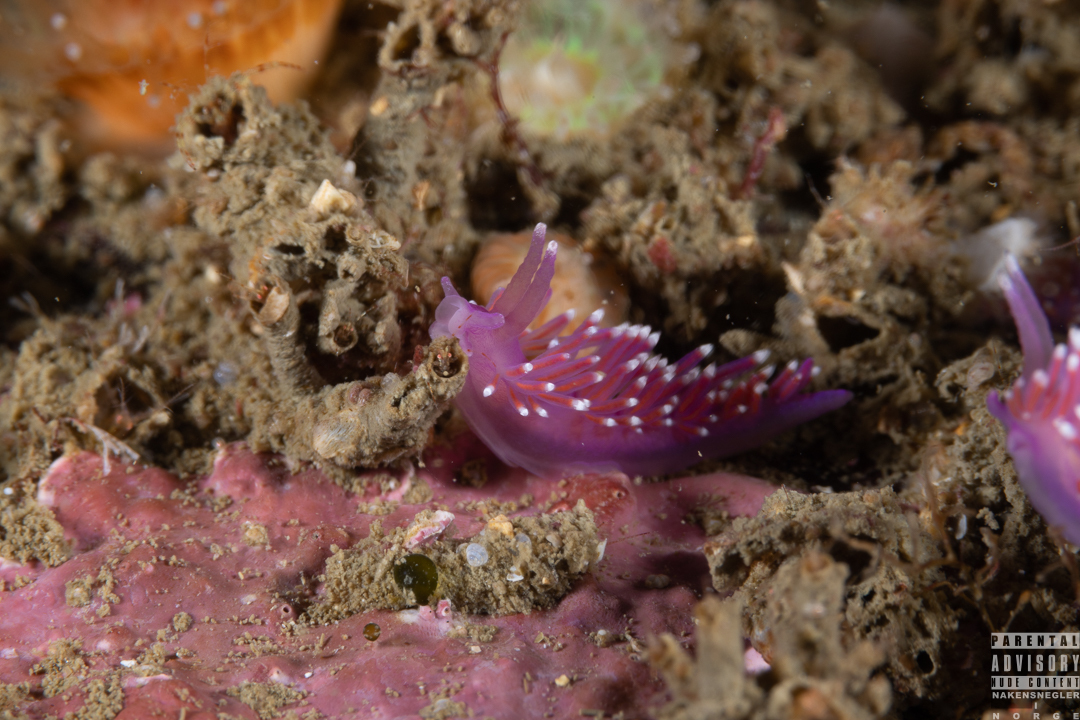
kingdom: Animalia
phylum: Mollusca
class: Gastropoda
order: Nudibranchia
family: Flabellinidae
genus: Edmundsella
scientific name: Edmundsella pedata
